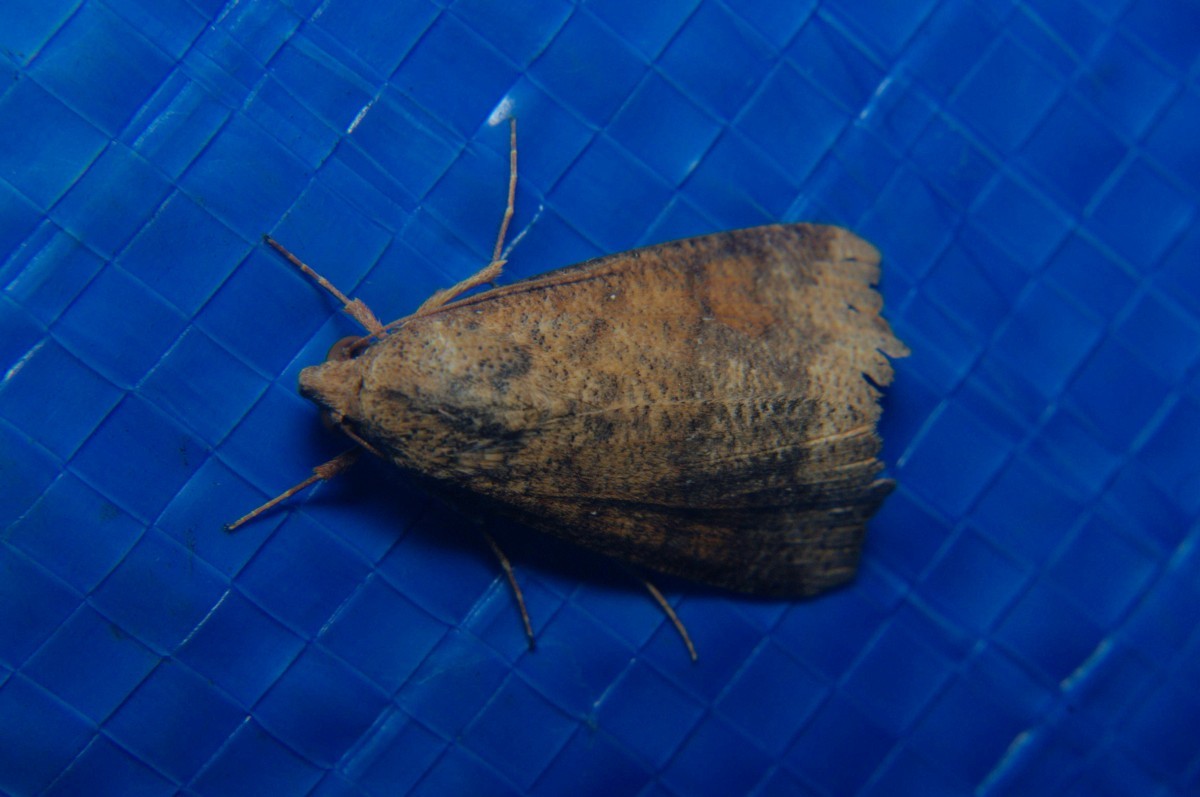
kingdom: Animalia
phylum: Arthropoda
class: Insecta
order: Lepidoptera
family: Erebidae
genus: Gonitis
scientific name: Gonitis involuta
